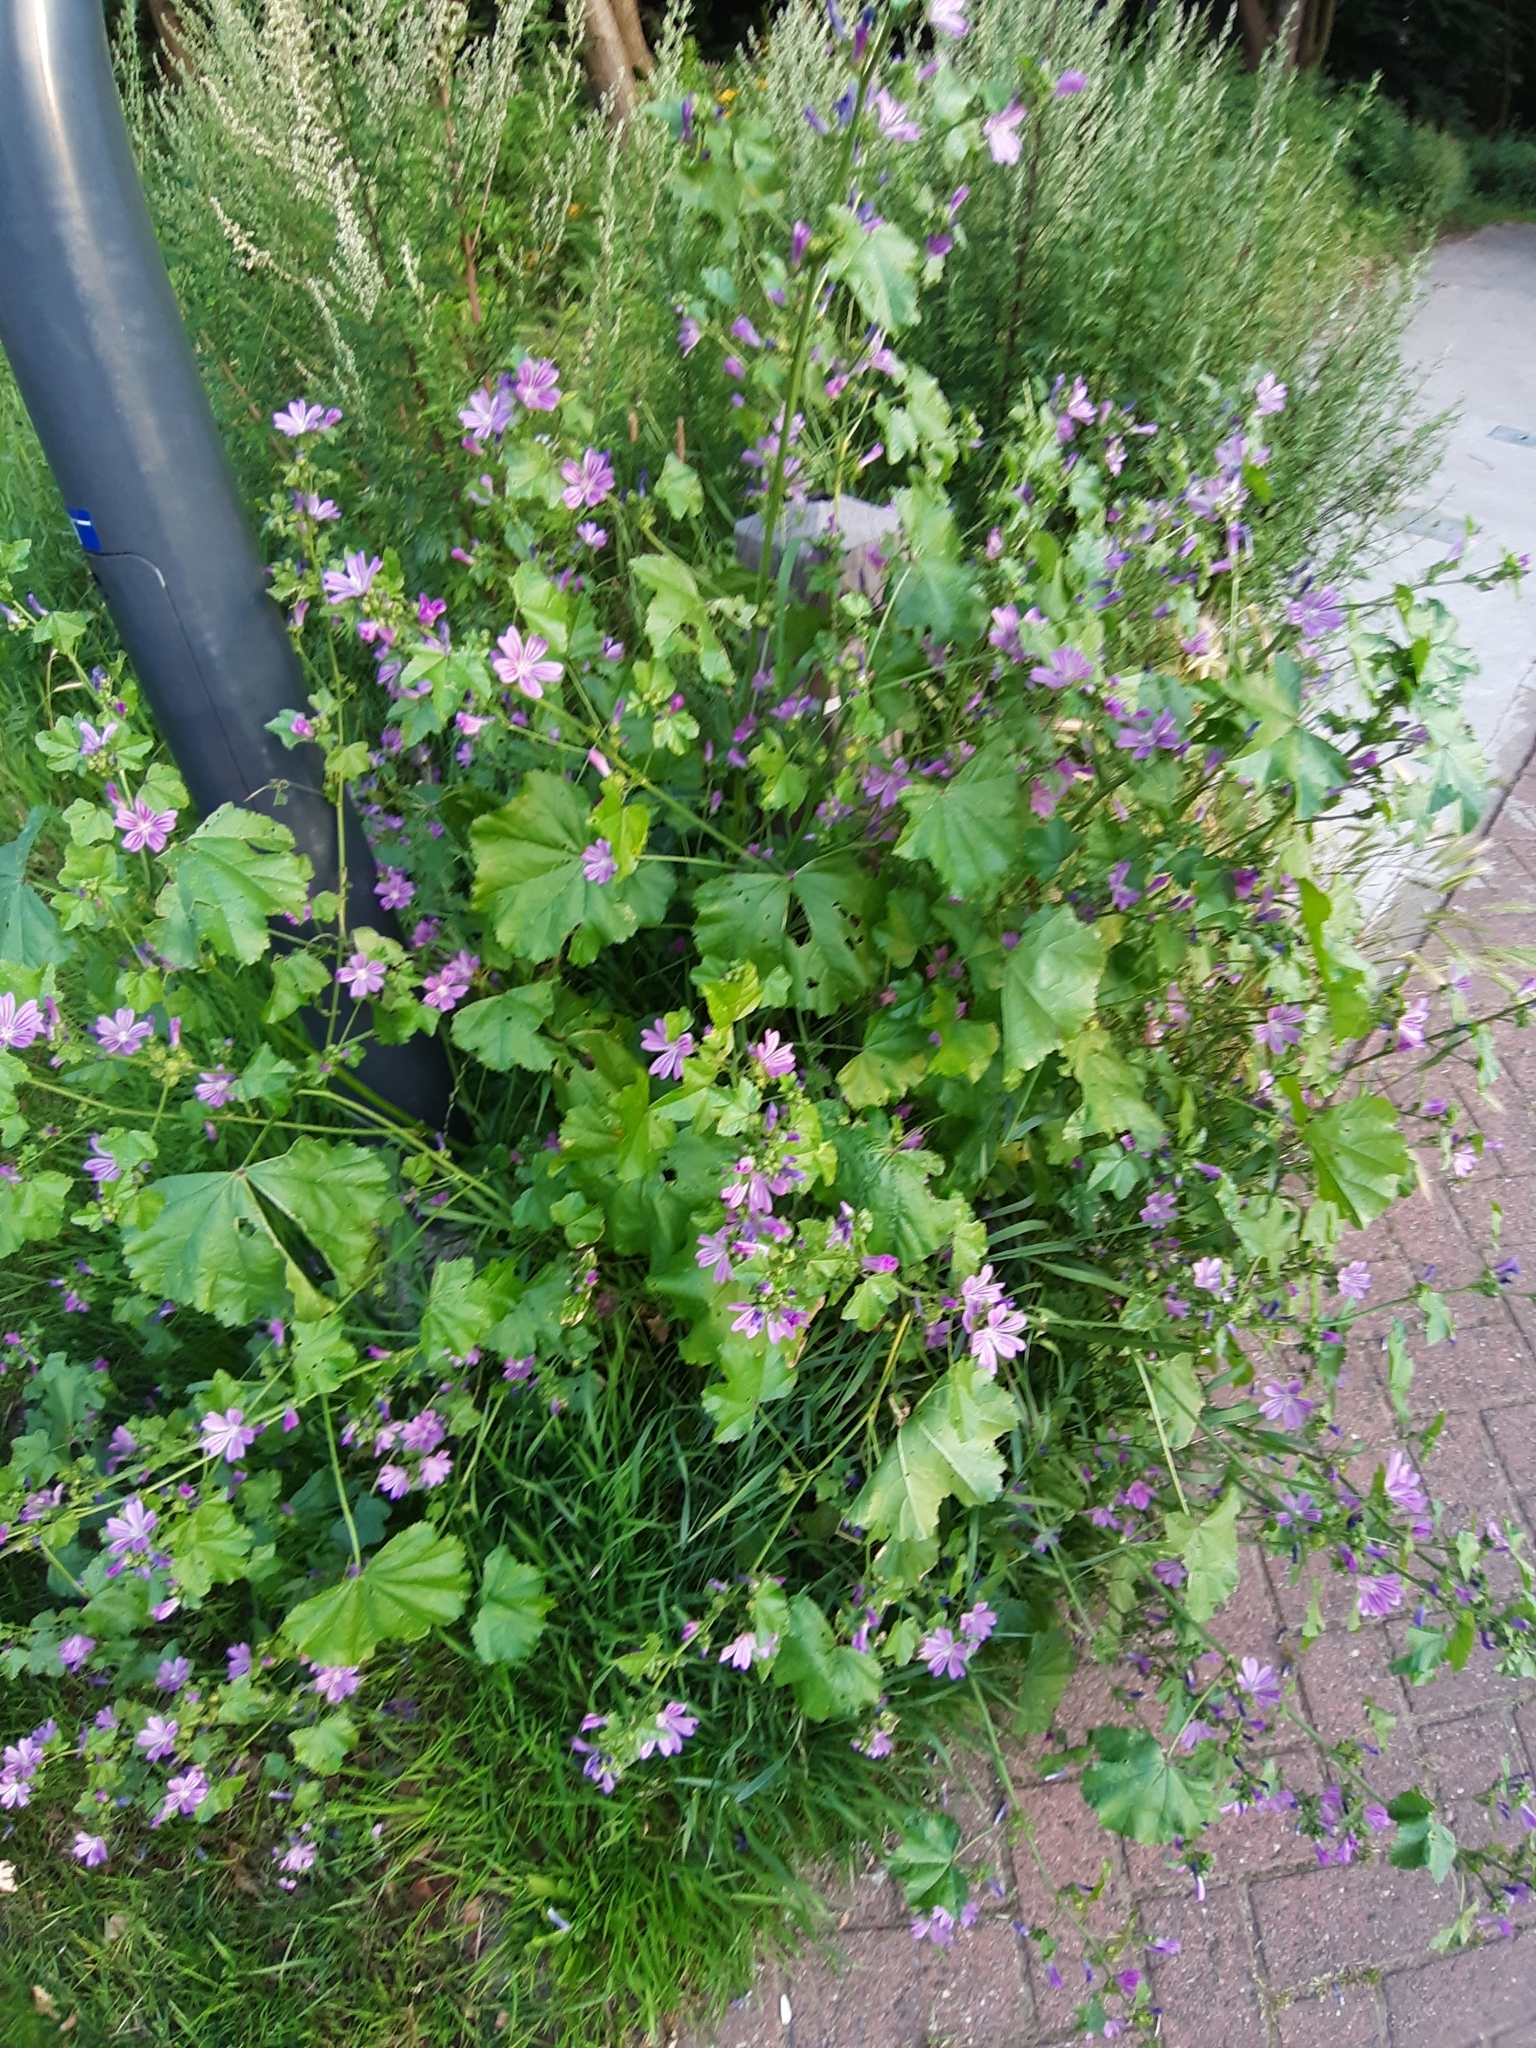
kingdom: Plantae
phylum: Tracheophyta
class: Magnoliopsida
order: Malvales
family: Malvaceae
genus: Malva
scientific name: Malva sylvestris
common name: Common mallow
